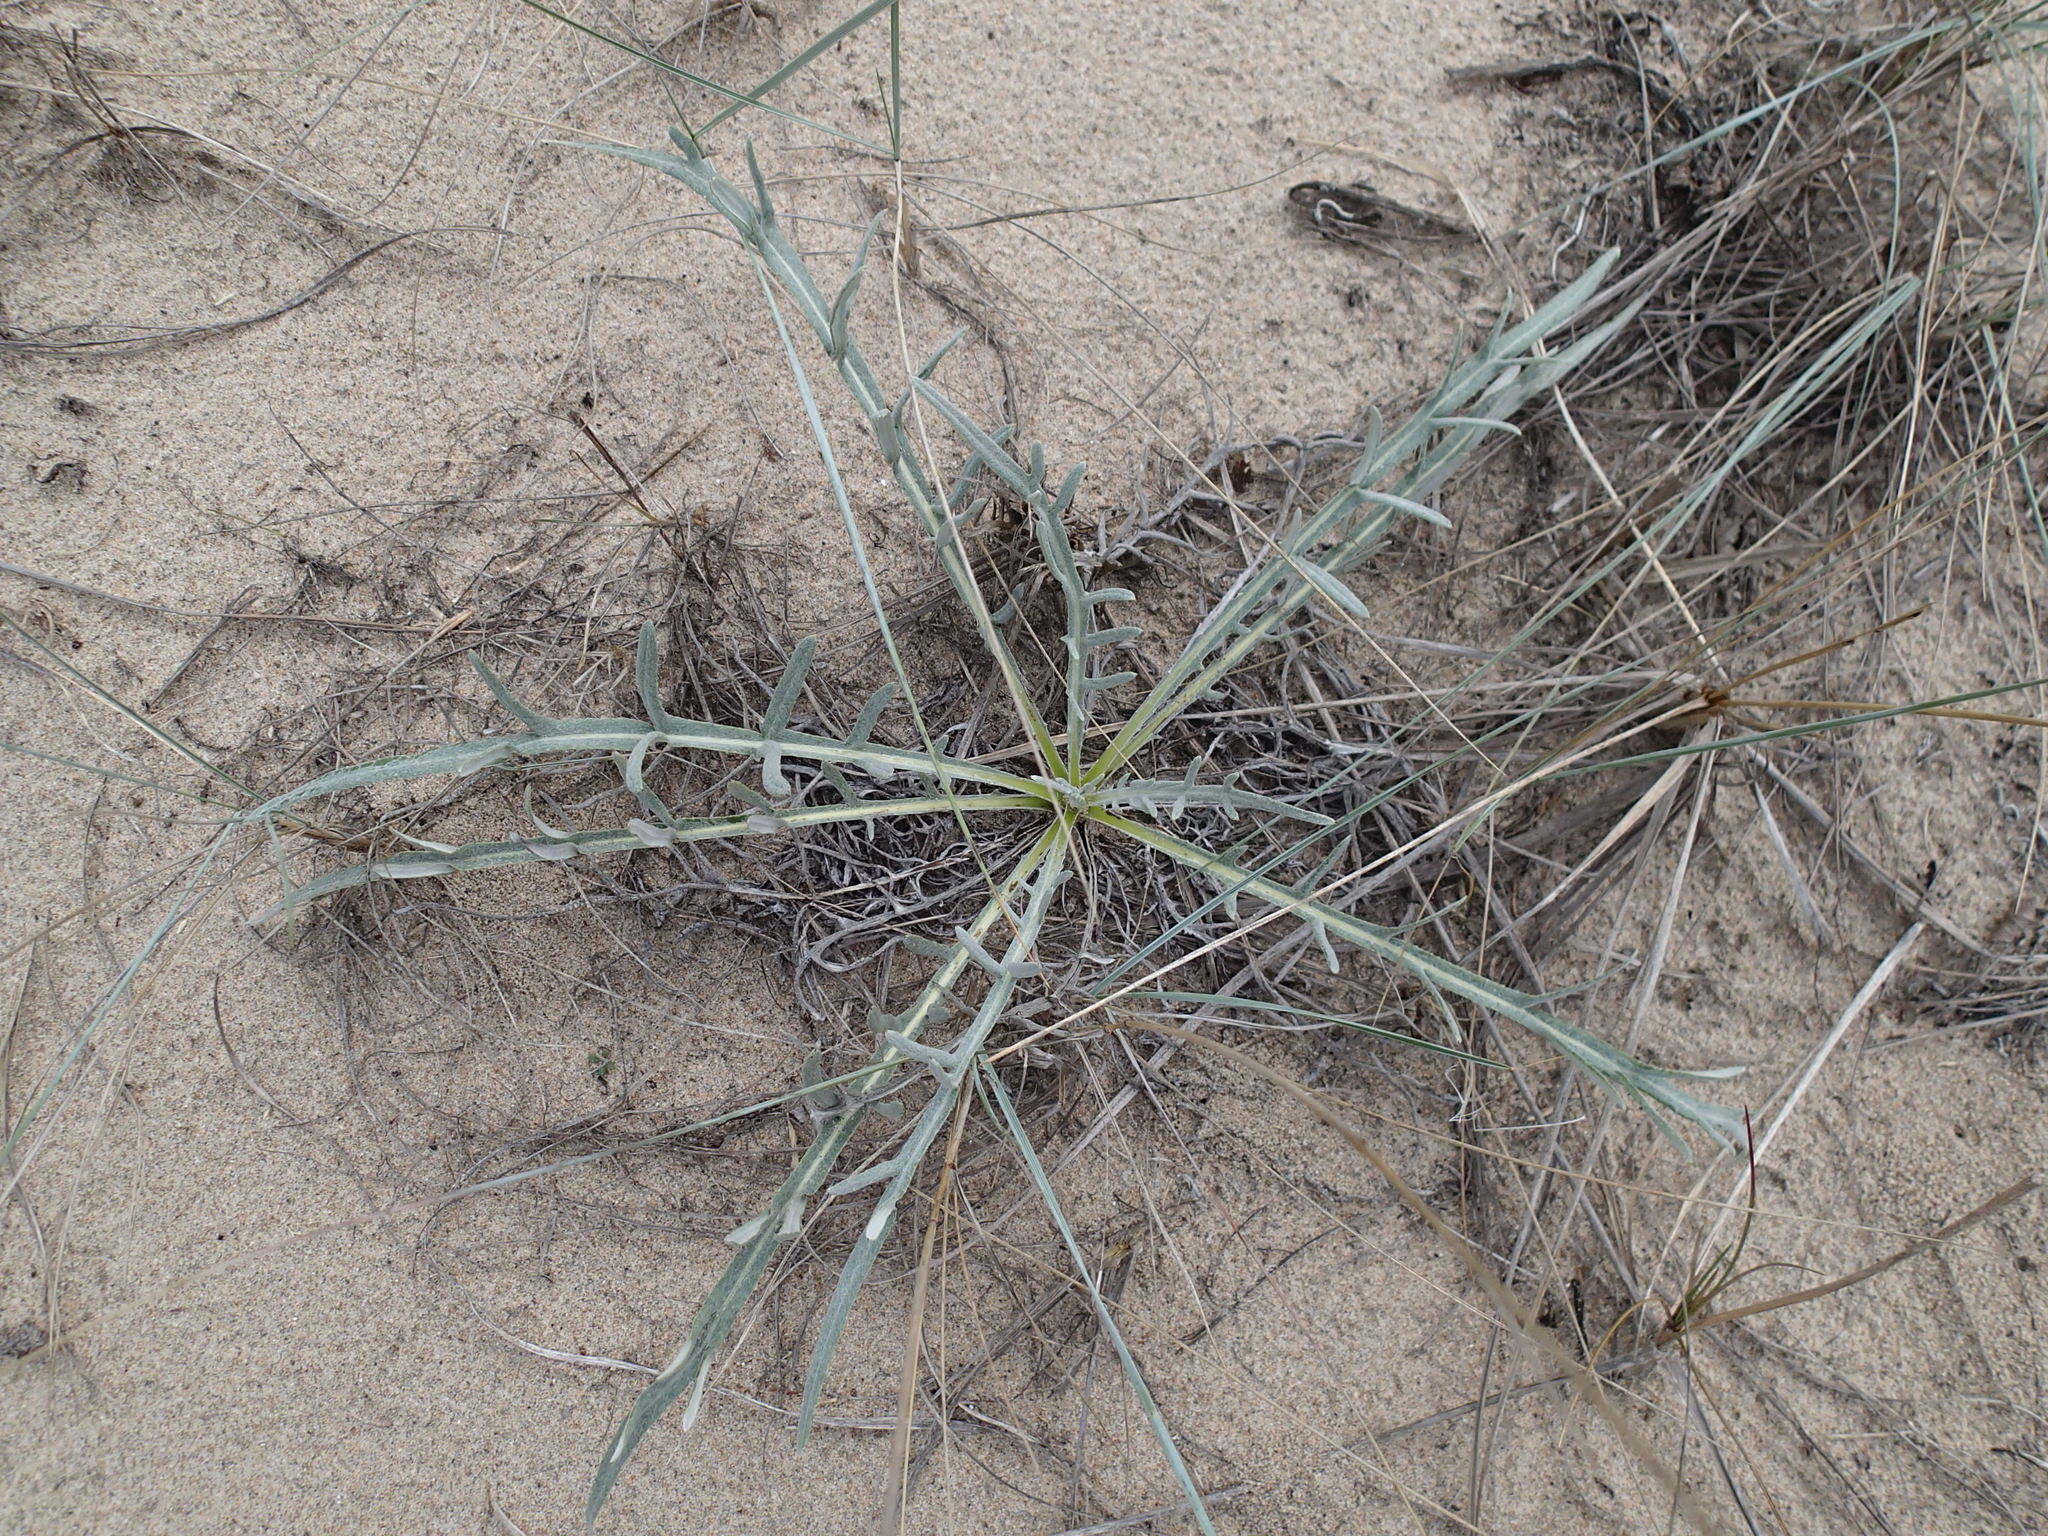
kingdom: Plantae
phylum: Tracheophyta
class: Magnoliopsida
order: Asterales
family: Asteraceae
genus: Cirsium
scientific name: Cirsium pitcheri
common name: Dune thistle
